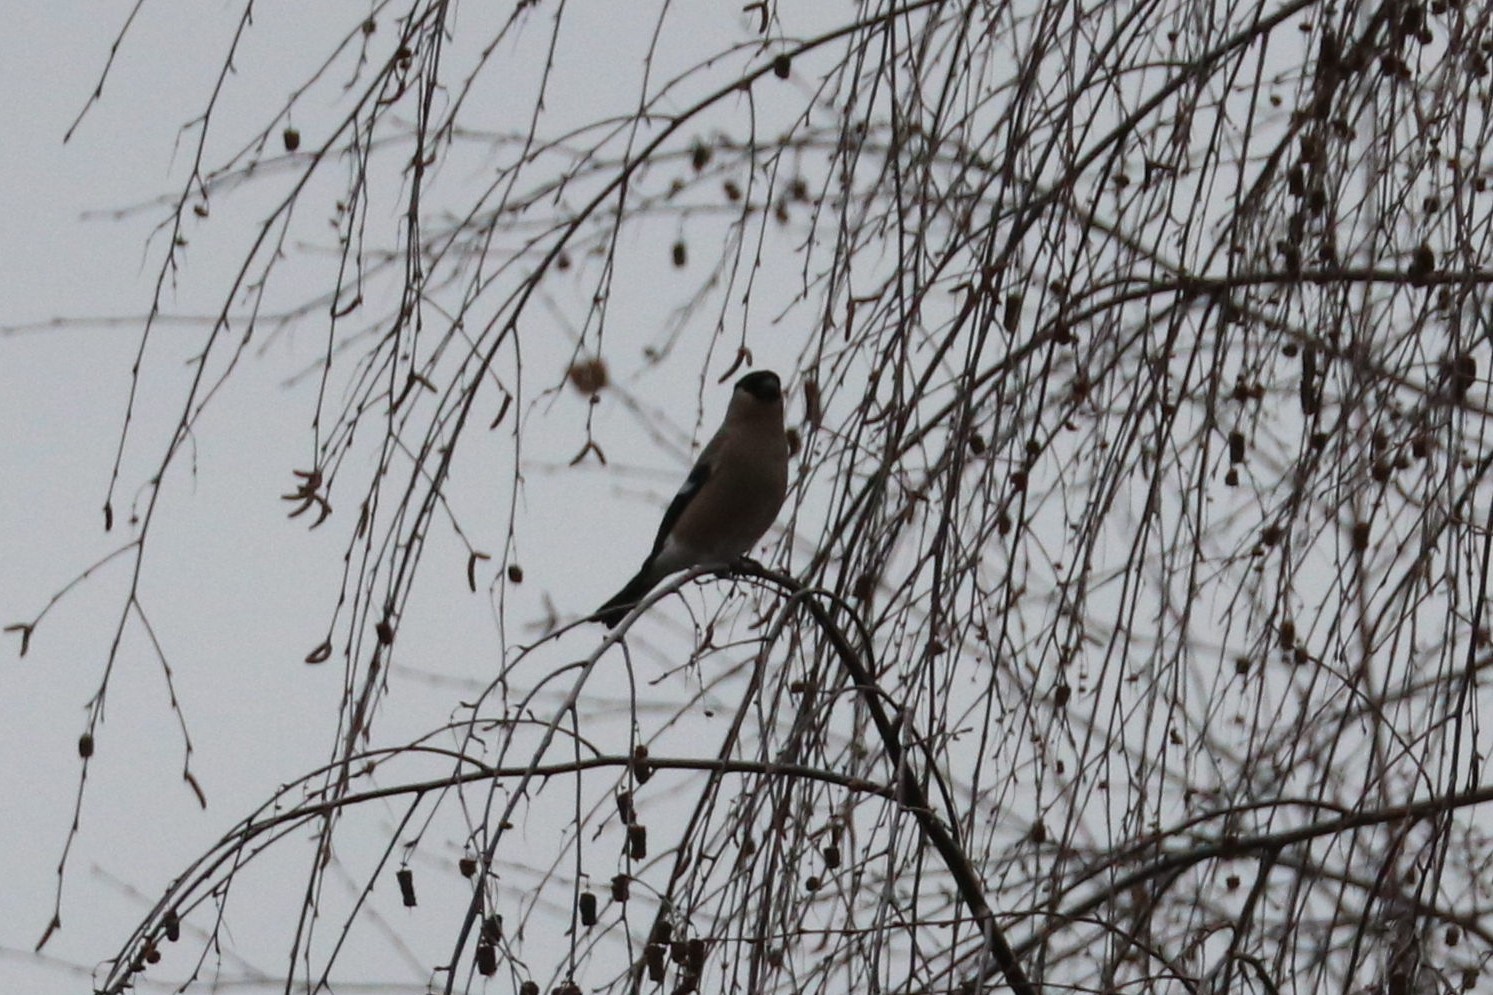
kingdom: Animalia
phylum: Chordata
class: Aves
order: Passeriformes
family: Fringillidae
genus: Pyrrhula
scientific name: Pyrrhula pyrrhula
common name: Eurasian bullfinch
